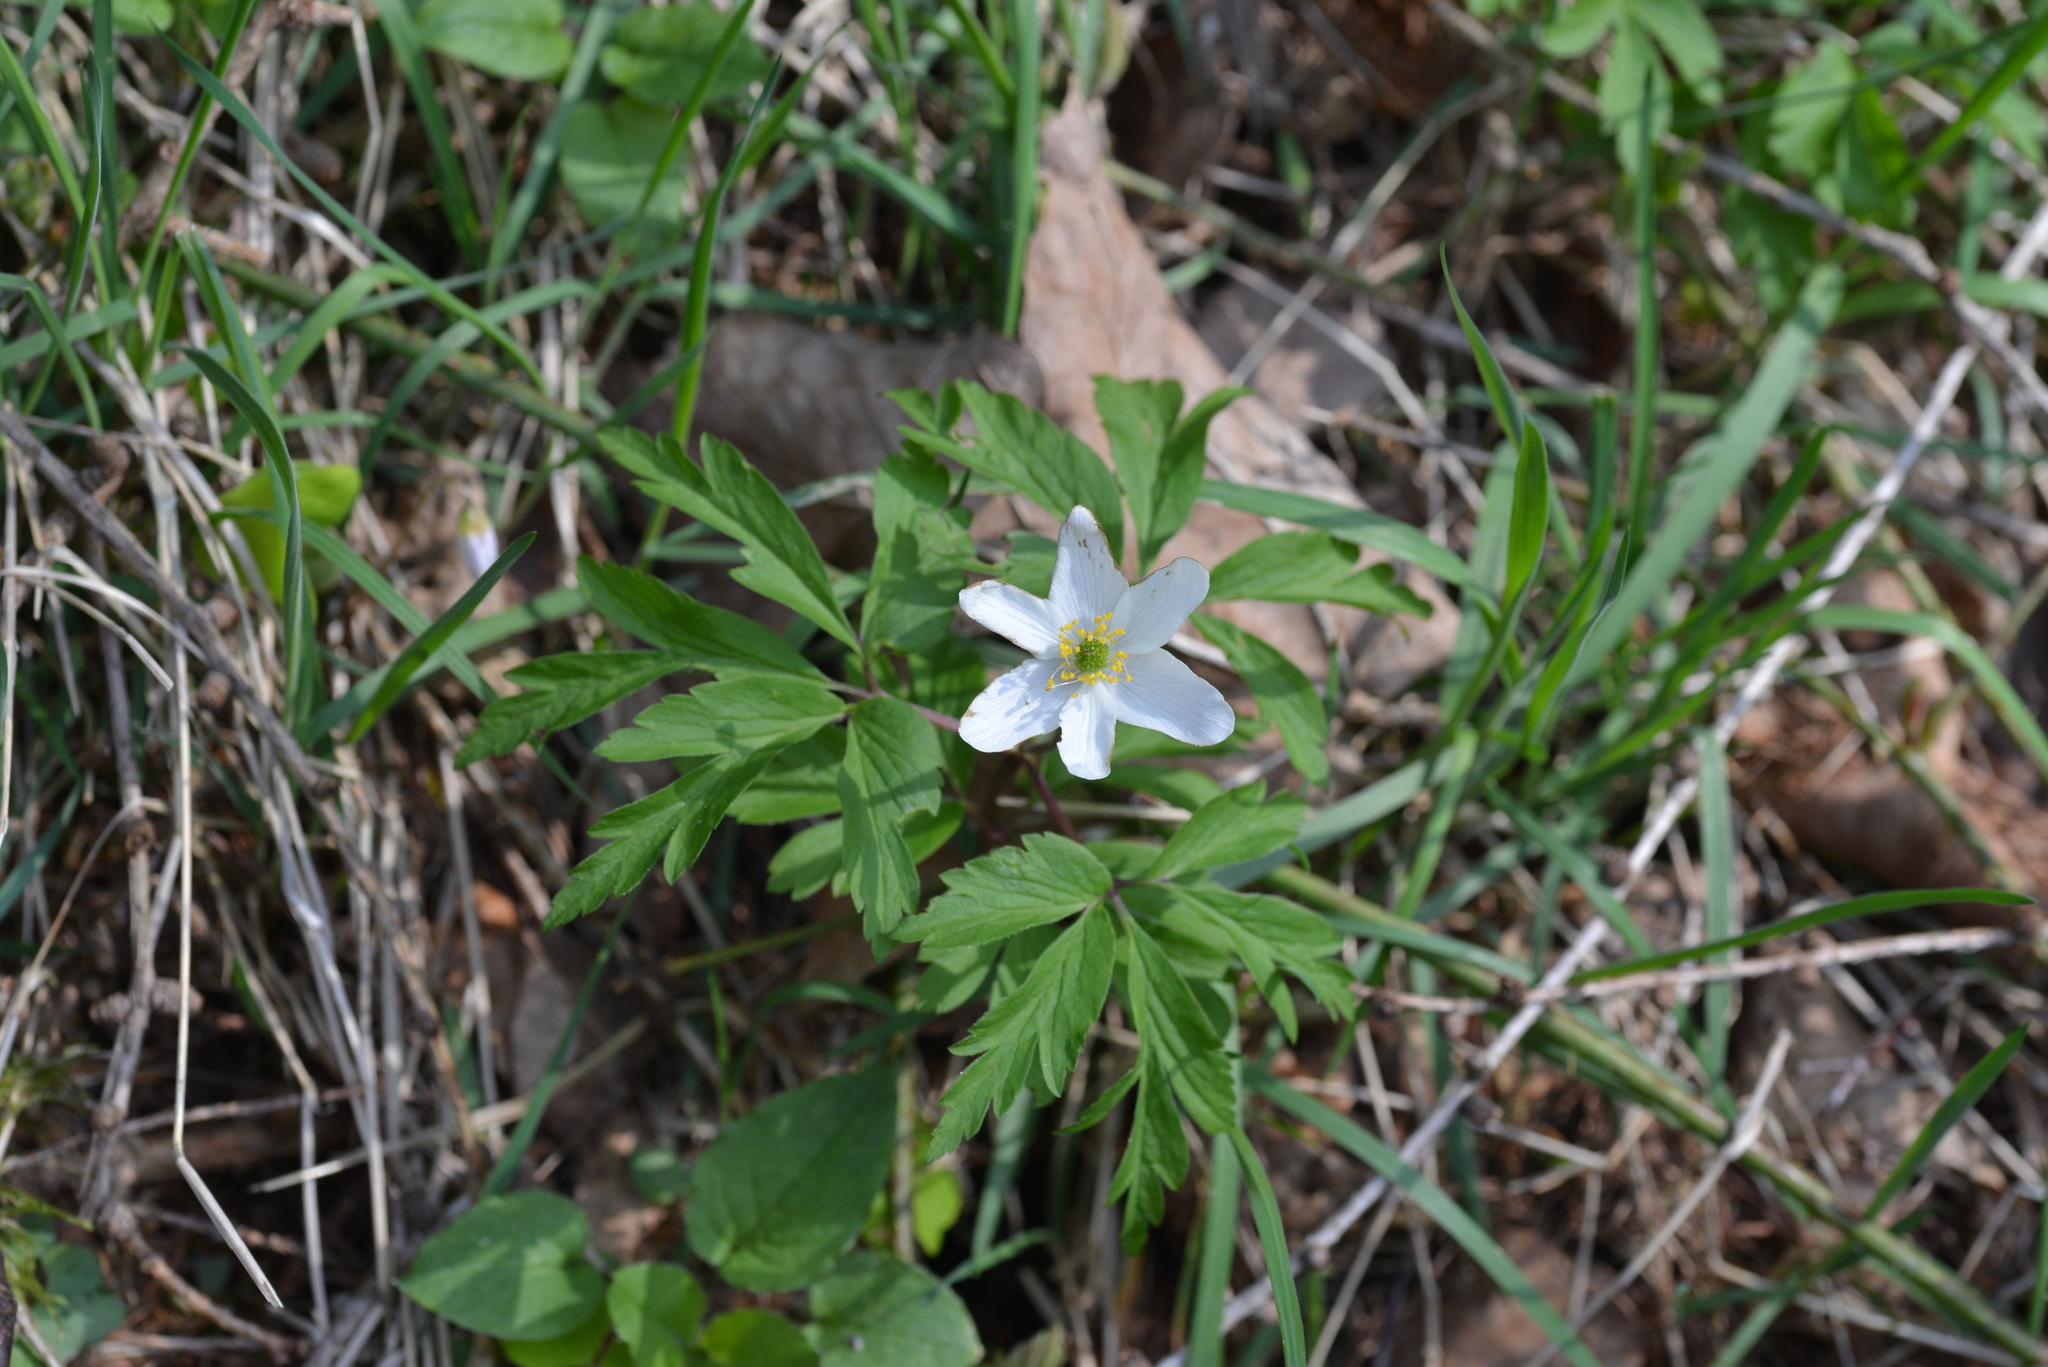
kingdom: Plantae
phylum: Tracheophyta
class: Magnoliopsida
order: Ranunculales
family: Ranunculaceae
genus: Anemone
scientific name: Anemone nemorosa
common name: Wood anemone
